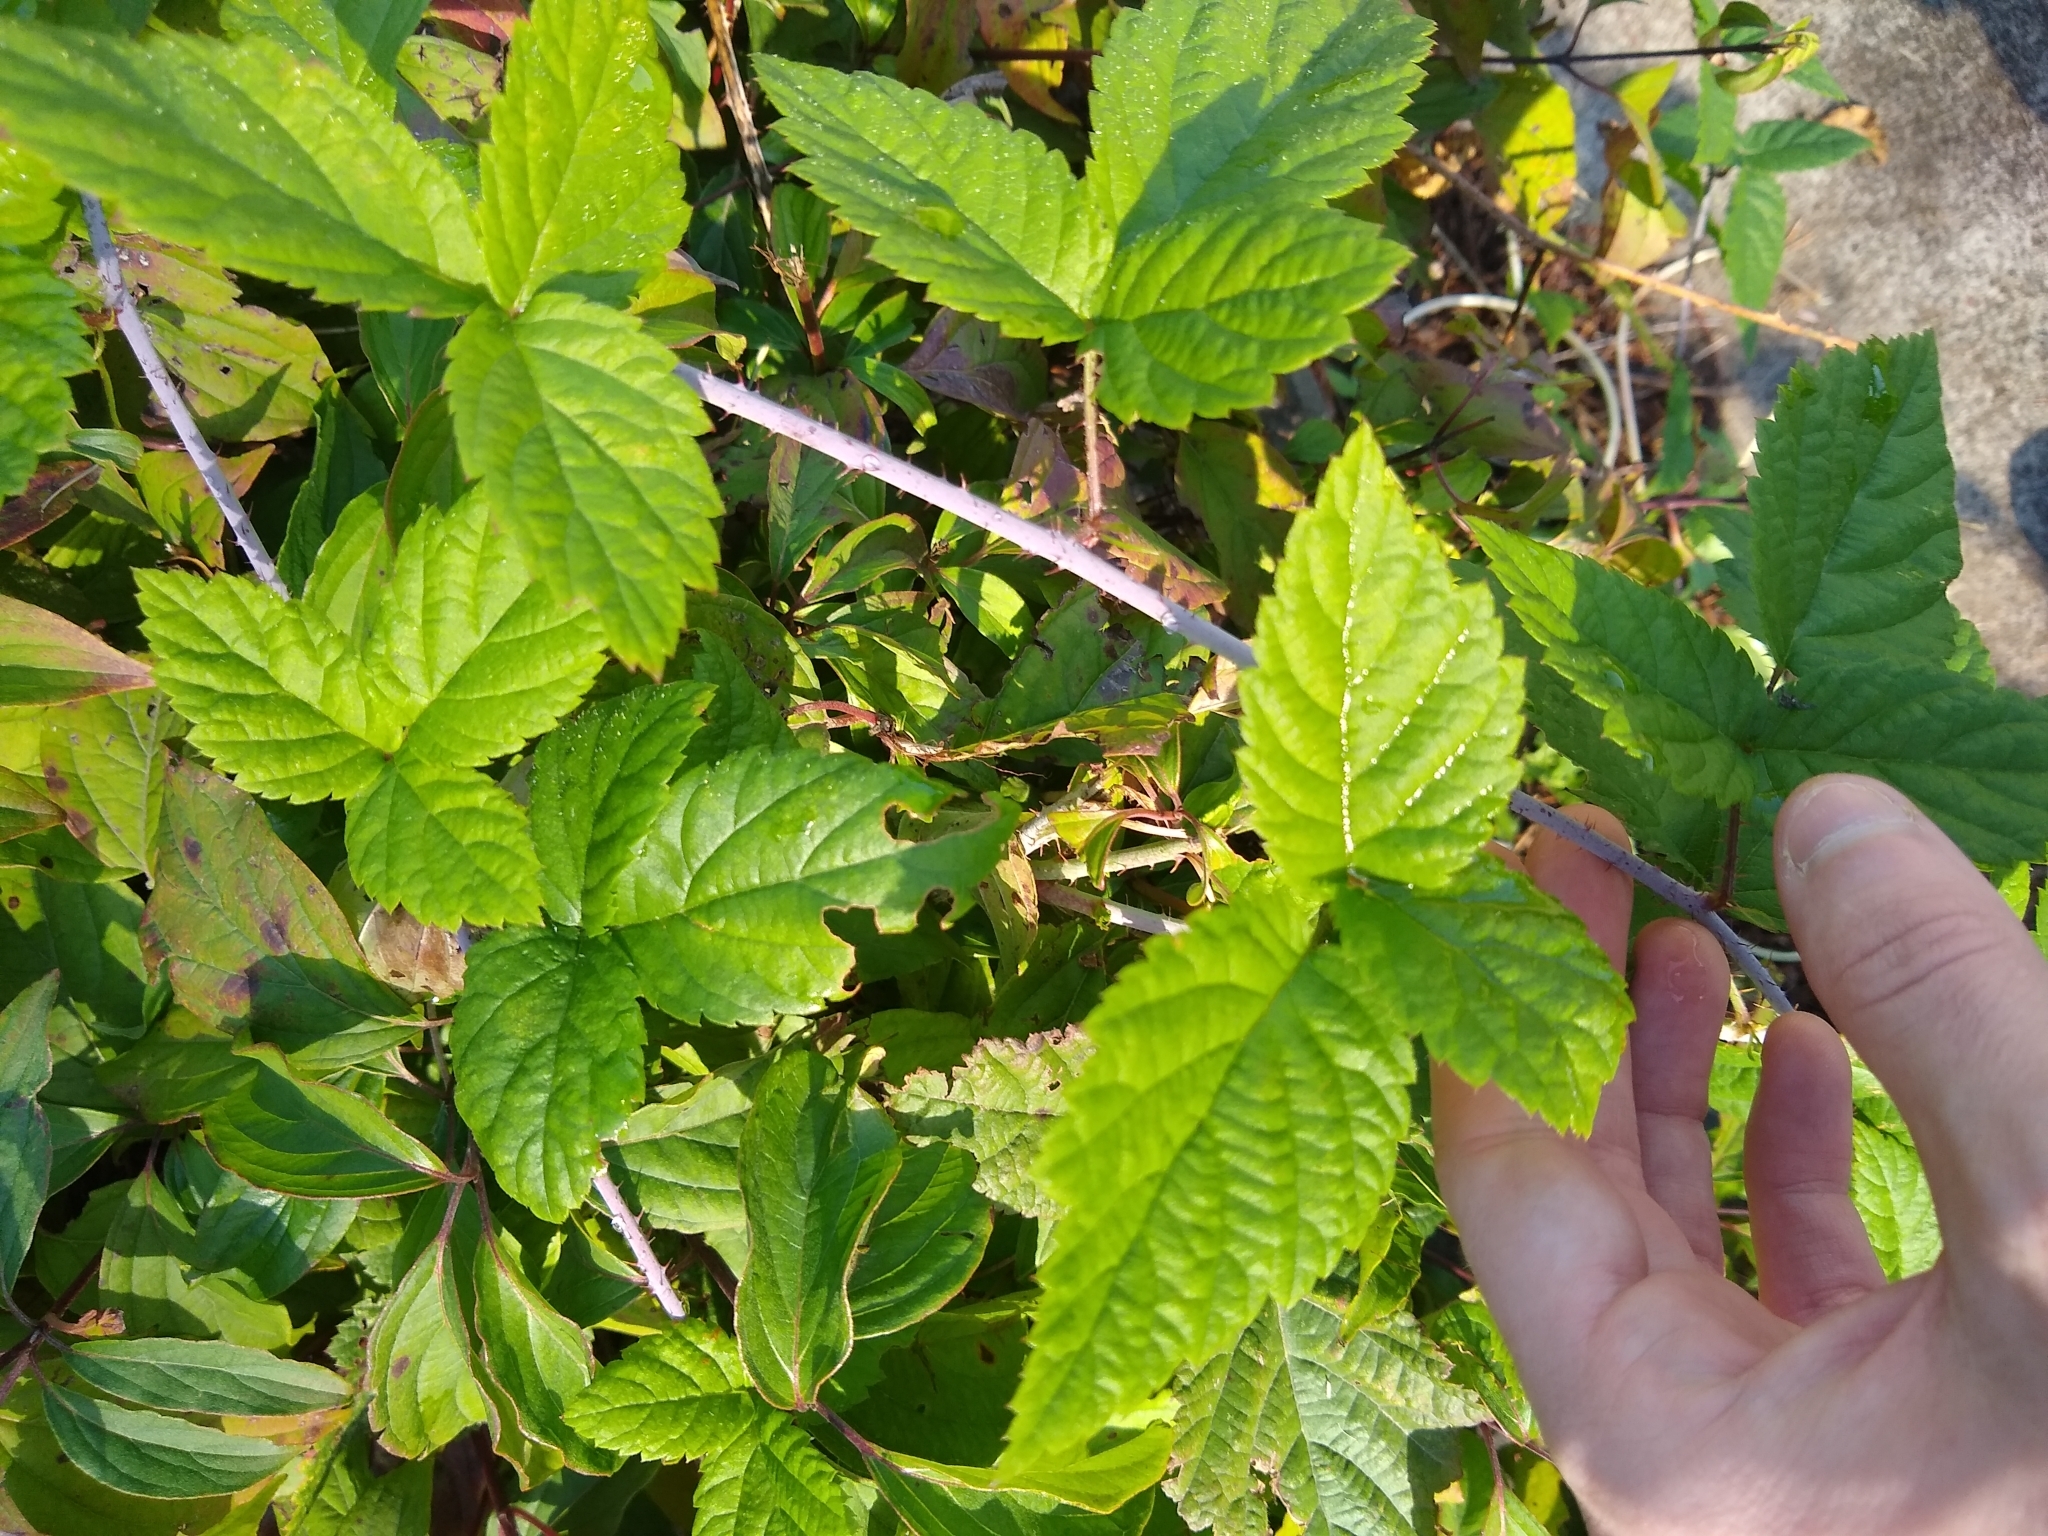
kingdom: Plantae
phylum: Tracheophyta
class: Magnoliopsida
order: Rosales
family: Rosaceae
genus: Rubus
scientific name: Rubus ursinus
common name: Pacific blackberry
